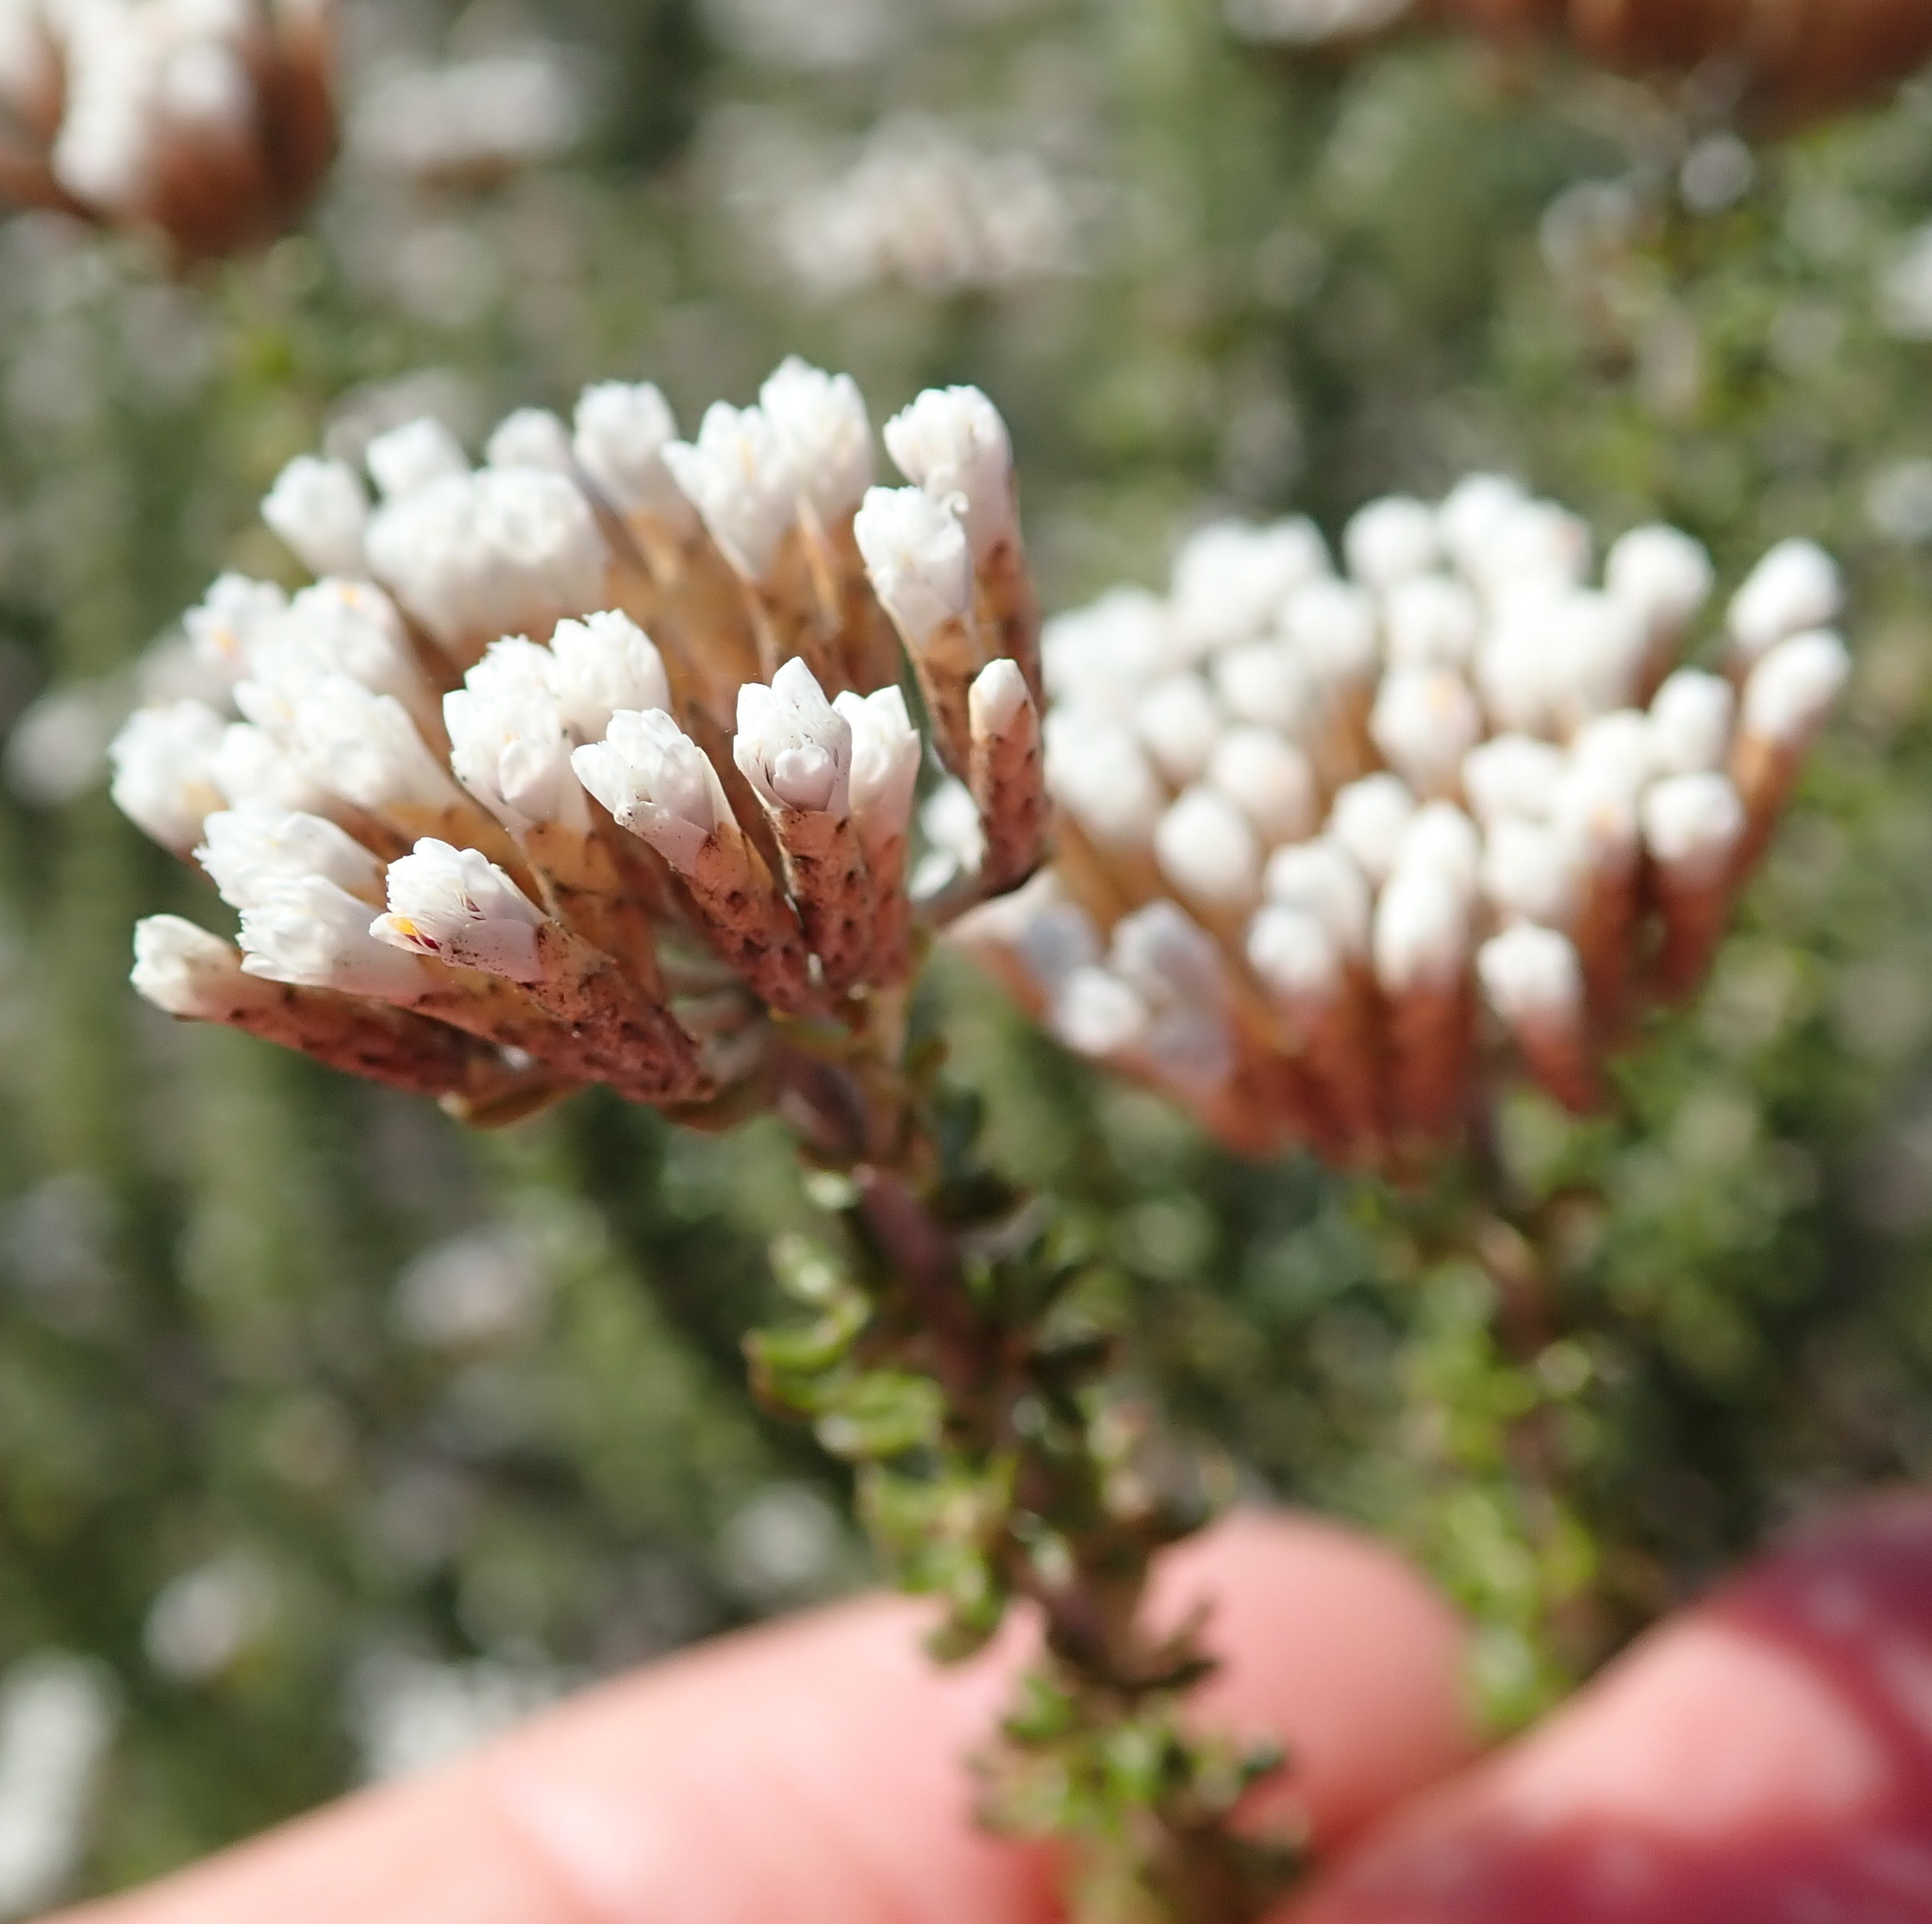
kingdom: Plantae
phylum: Tracheophyta
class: Magnoliopsida
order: Asterales
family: Asteraceae
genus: Metalasia
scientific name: Metalasia muricata
